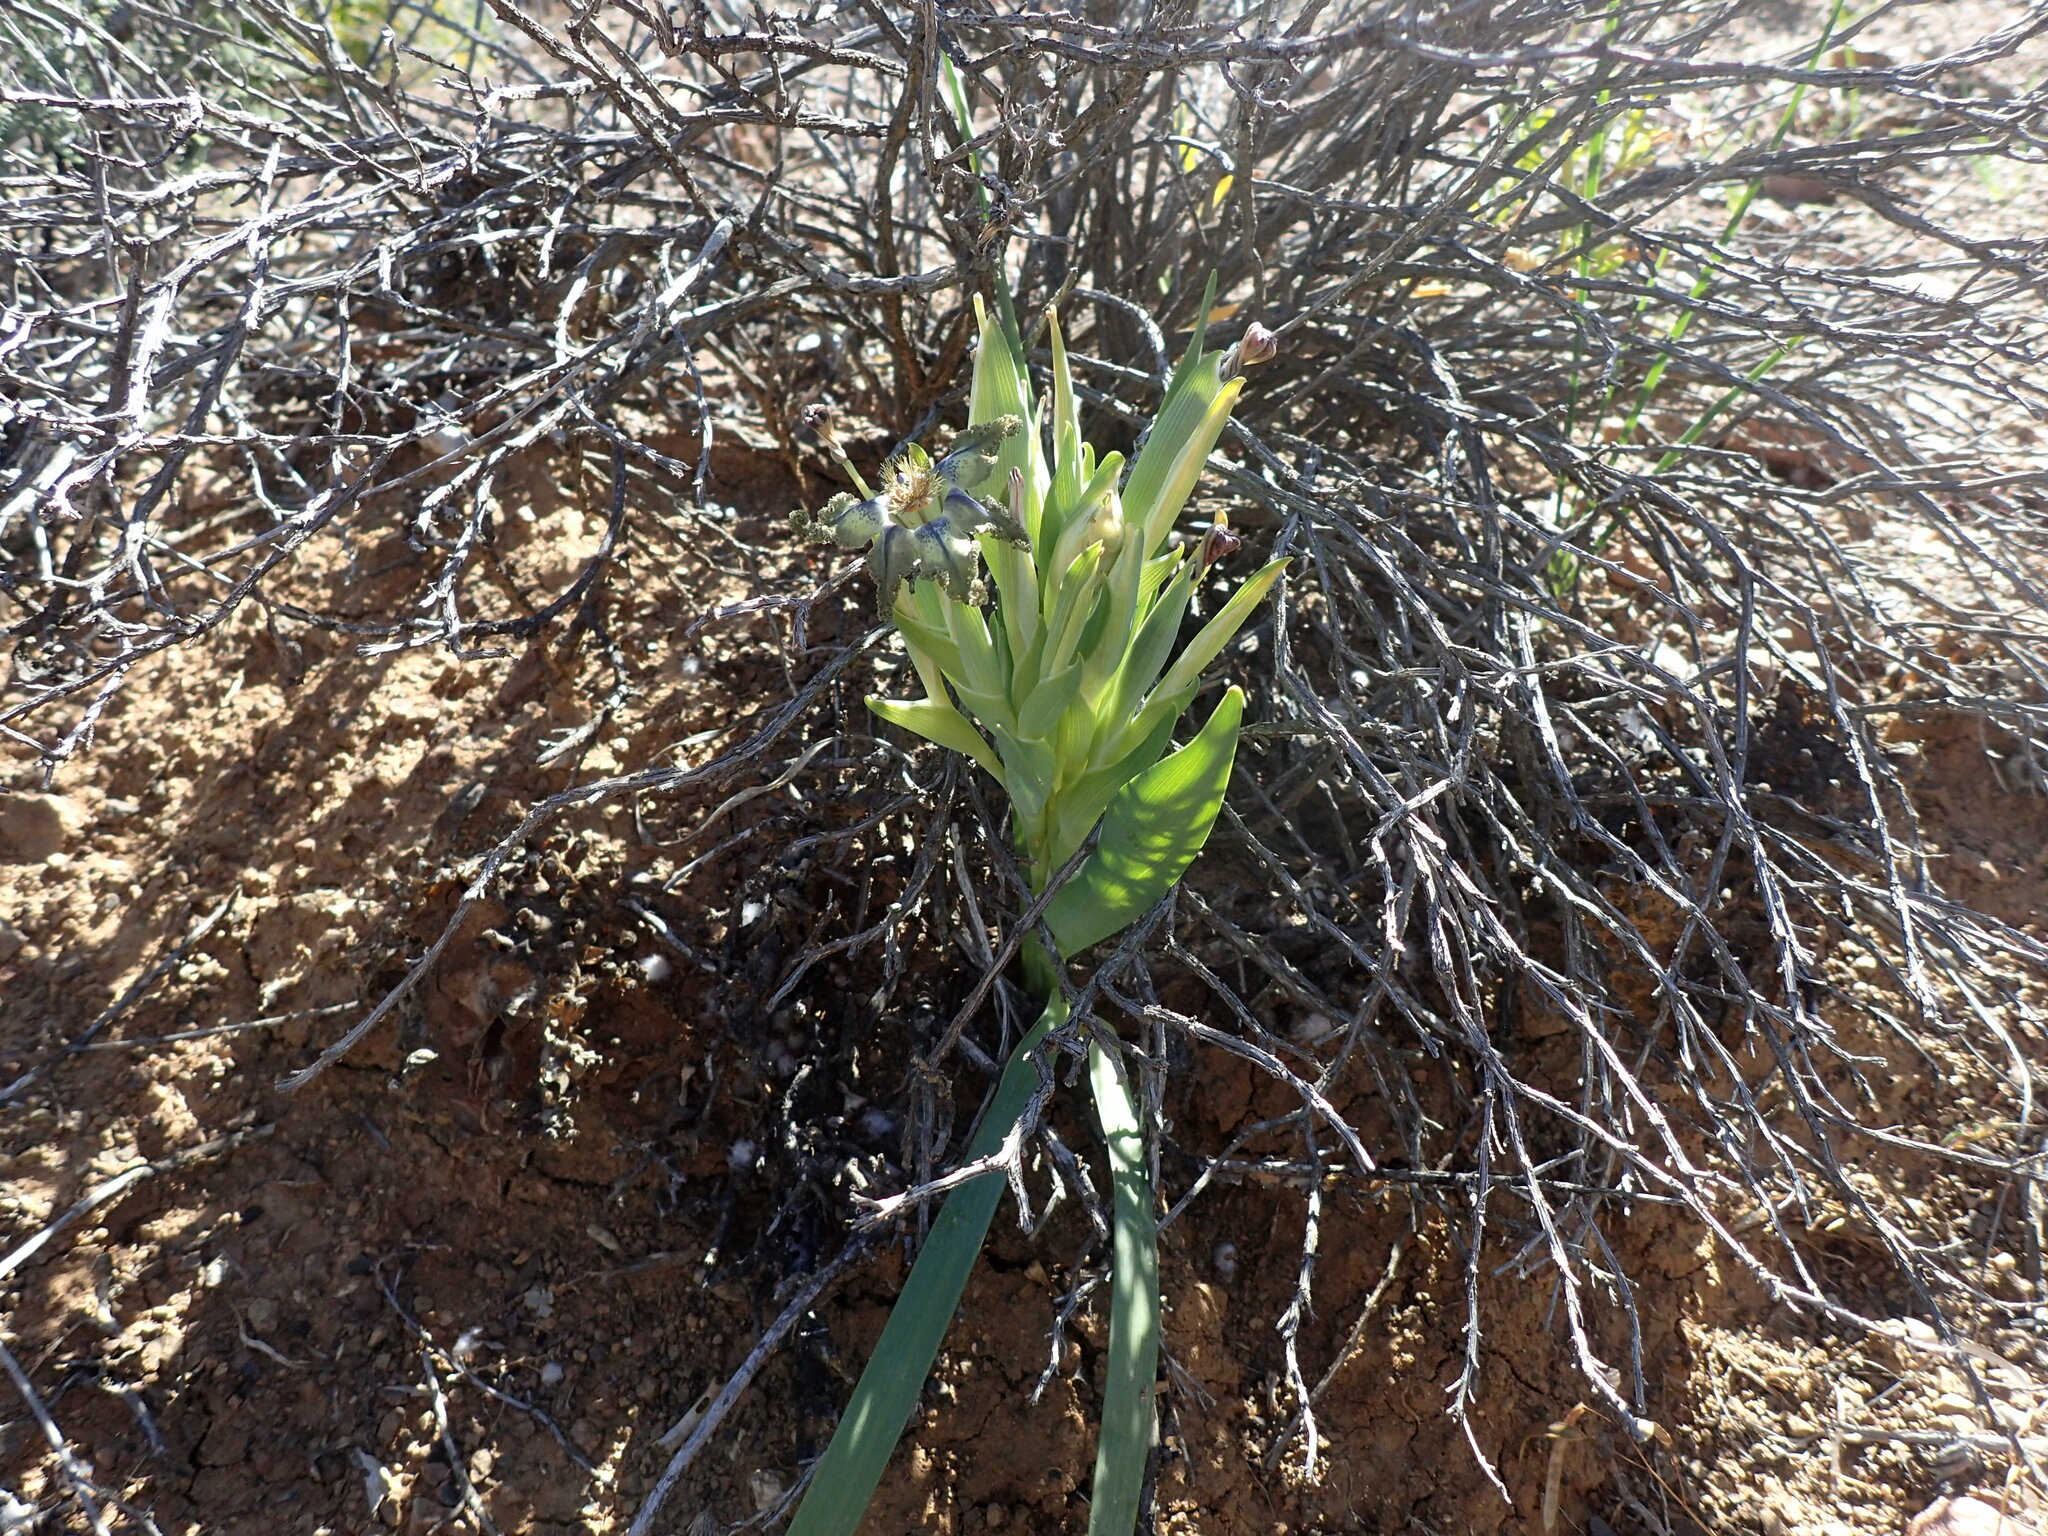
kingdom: Plantae
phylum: Tracheophyta
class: Liliopsida
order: Asparagales
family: Iridaceae
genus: Ferraria
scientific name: Ferraria variabilis
